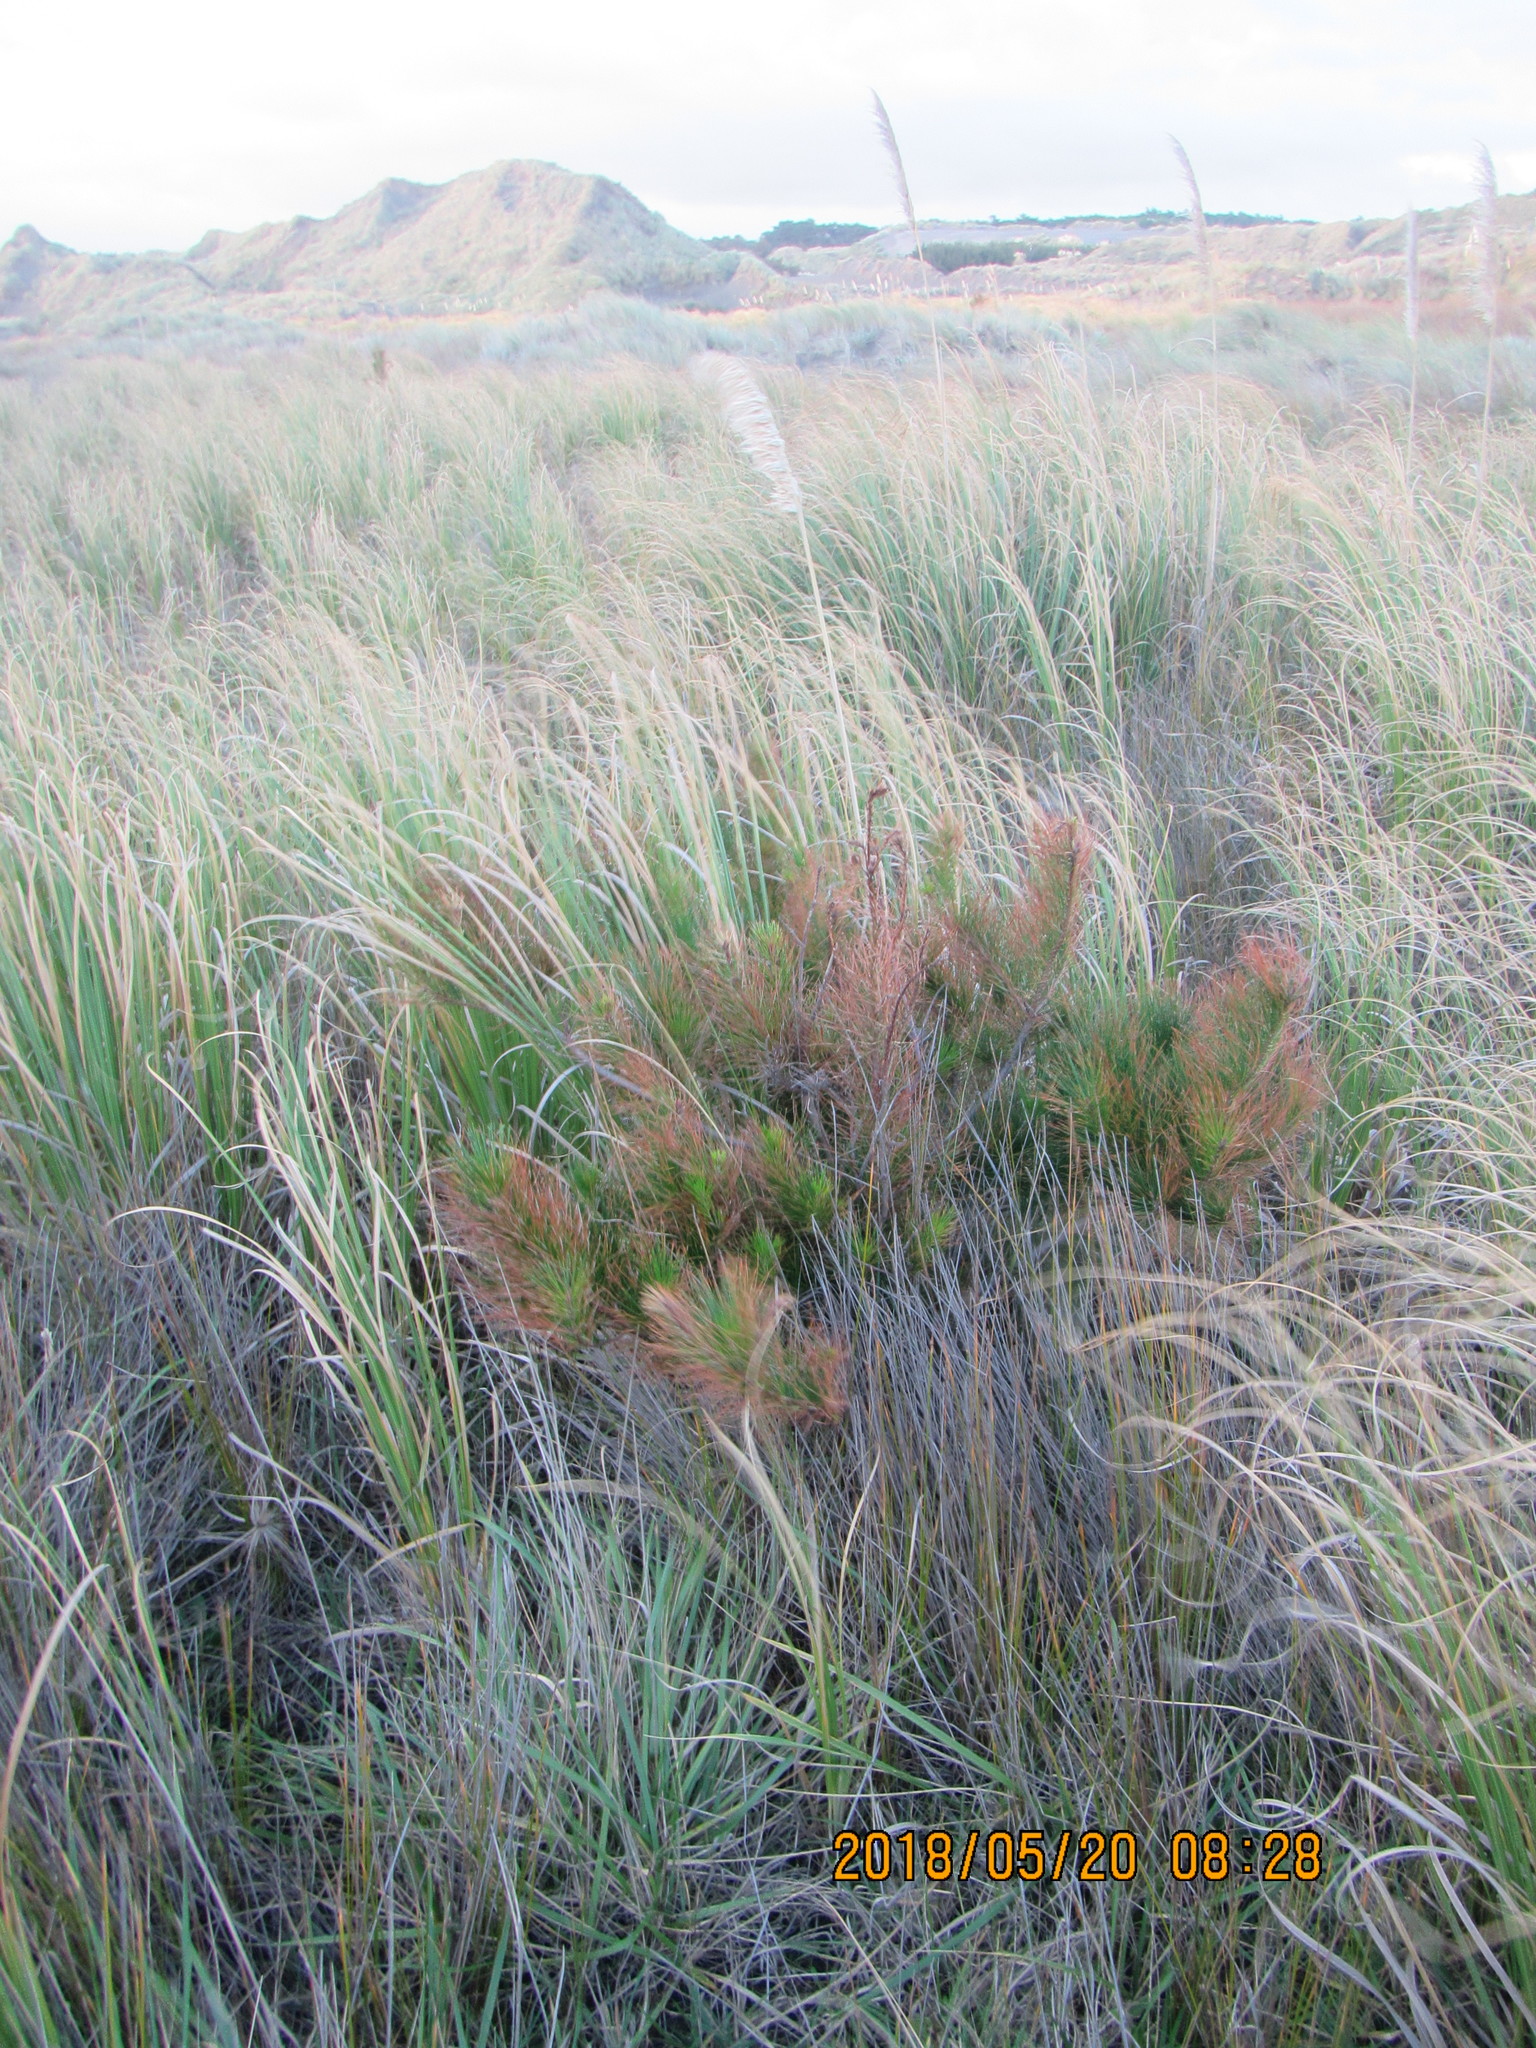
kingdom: Plantae
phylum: Tracheophyta
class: Pinopsida
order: Pinales
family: Pinaceae
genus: Pinus
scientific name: Pinus radiata
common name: Monterey pine
